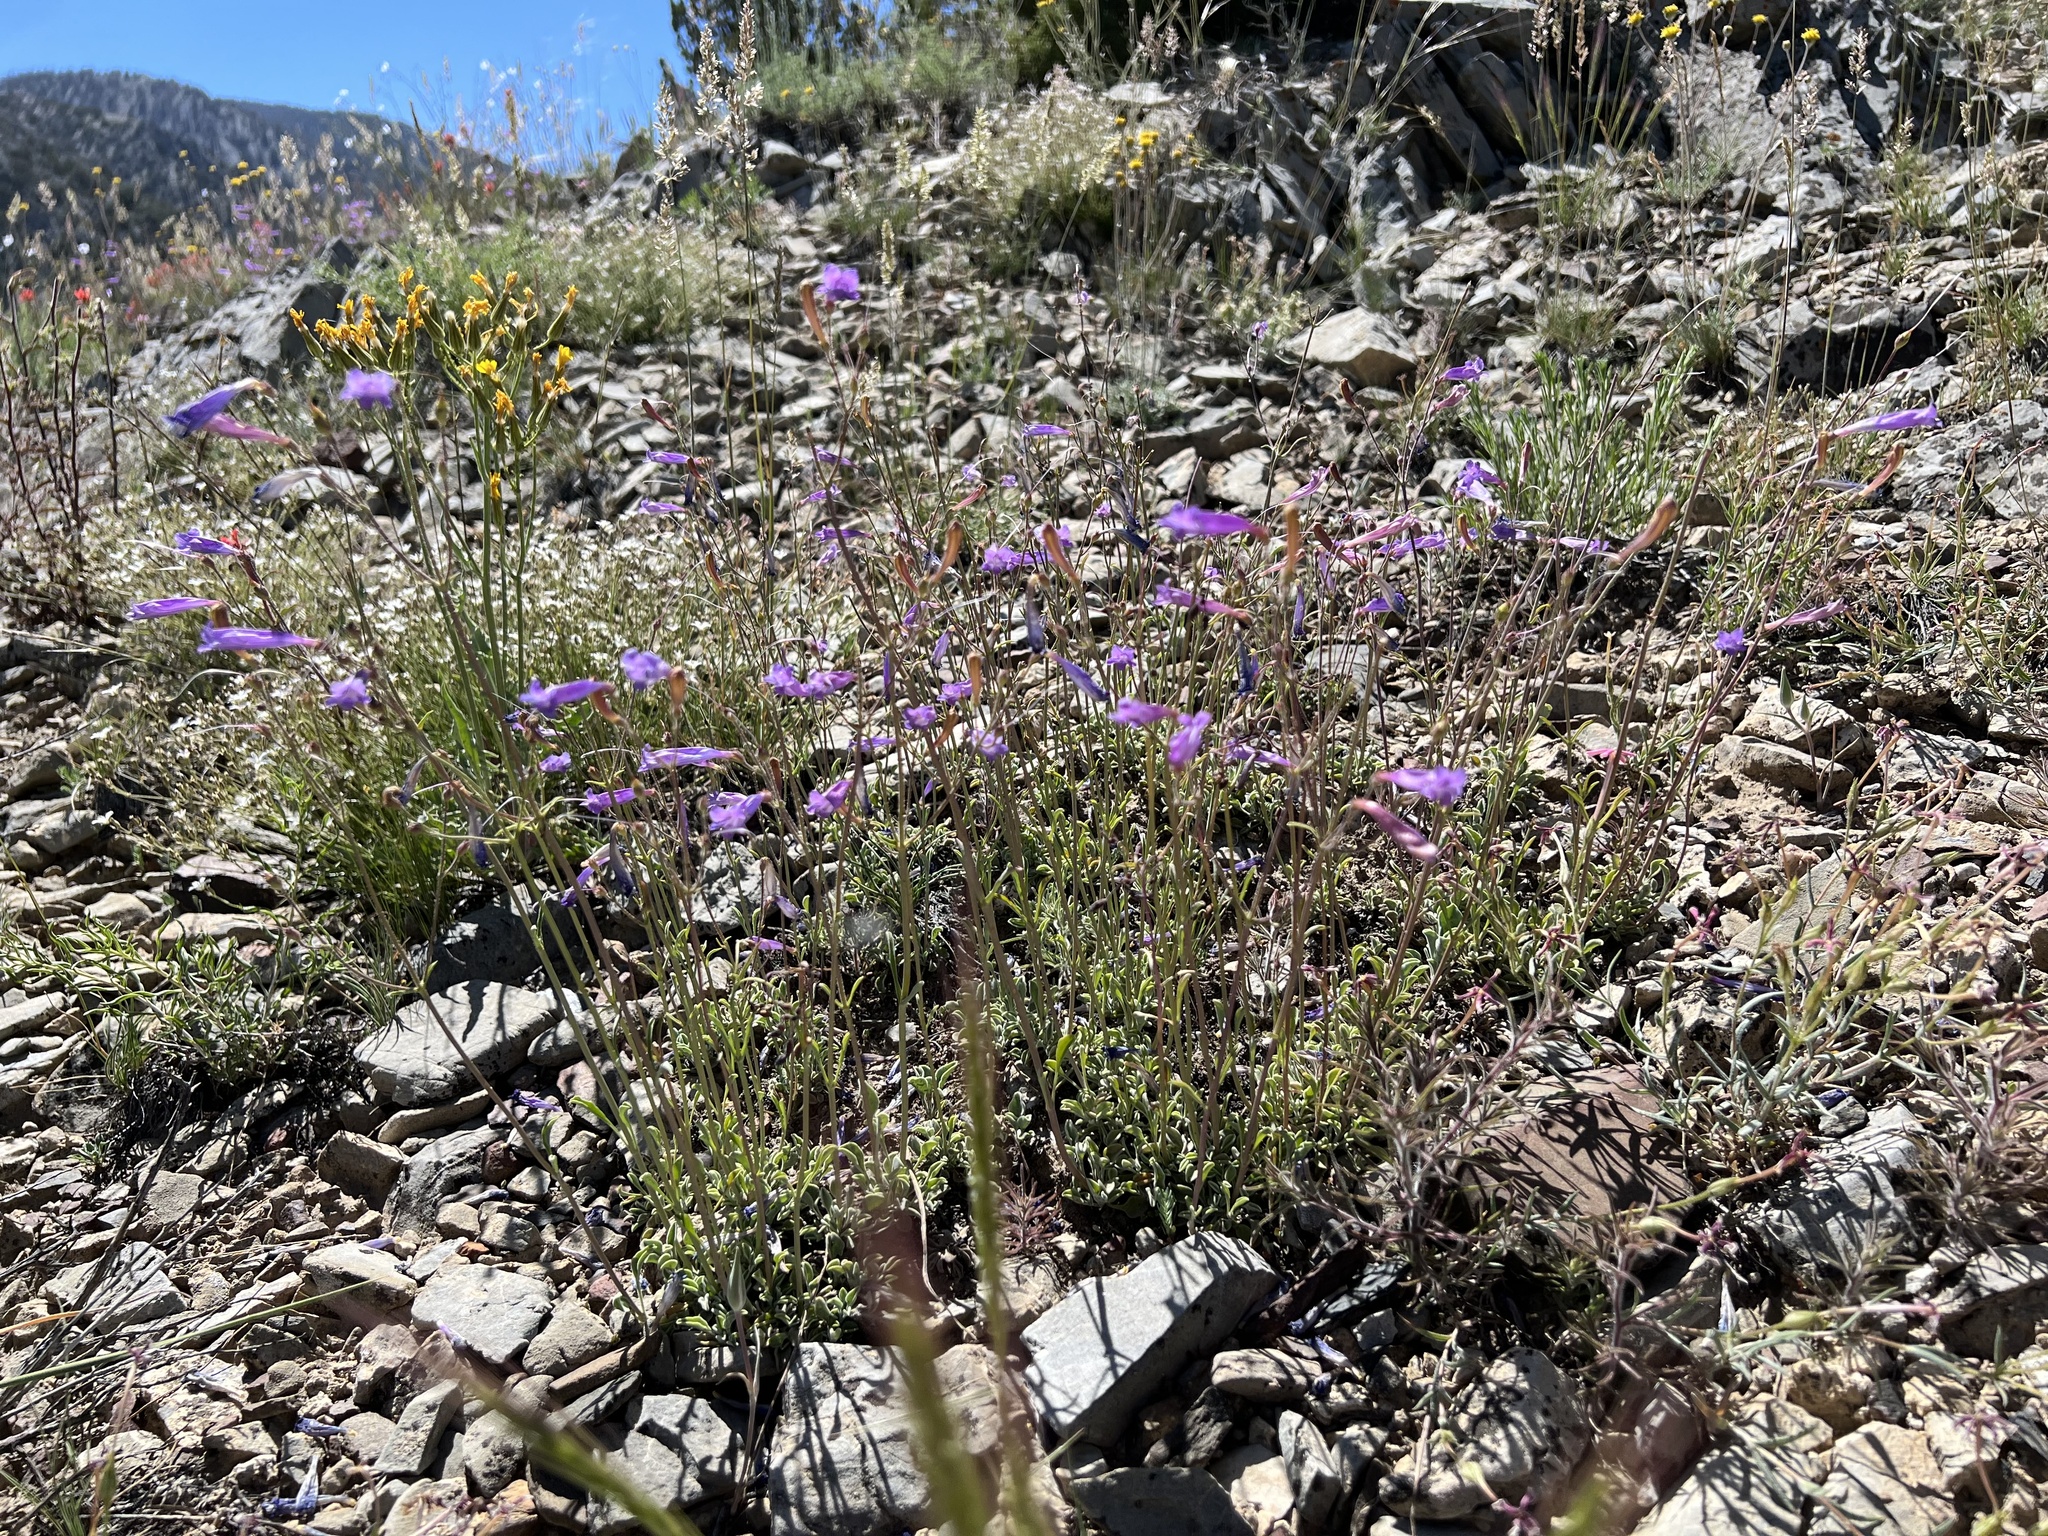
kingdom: Plantae
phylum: Tracheophyta
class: Magnoliopsida
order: Lamiales
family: Plantaginaceae
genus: Penstemon
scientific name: Penstemon scapoides
